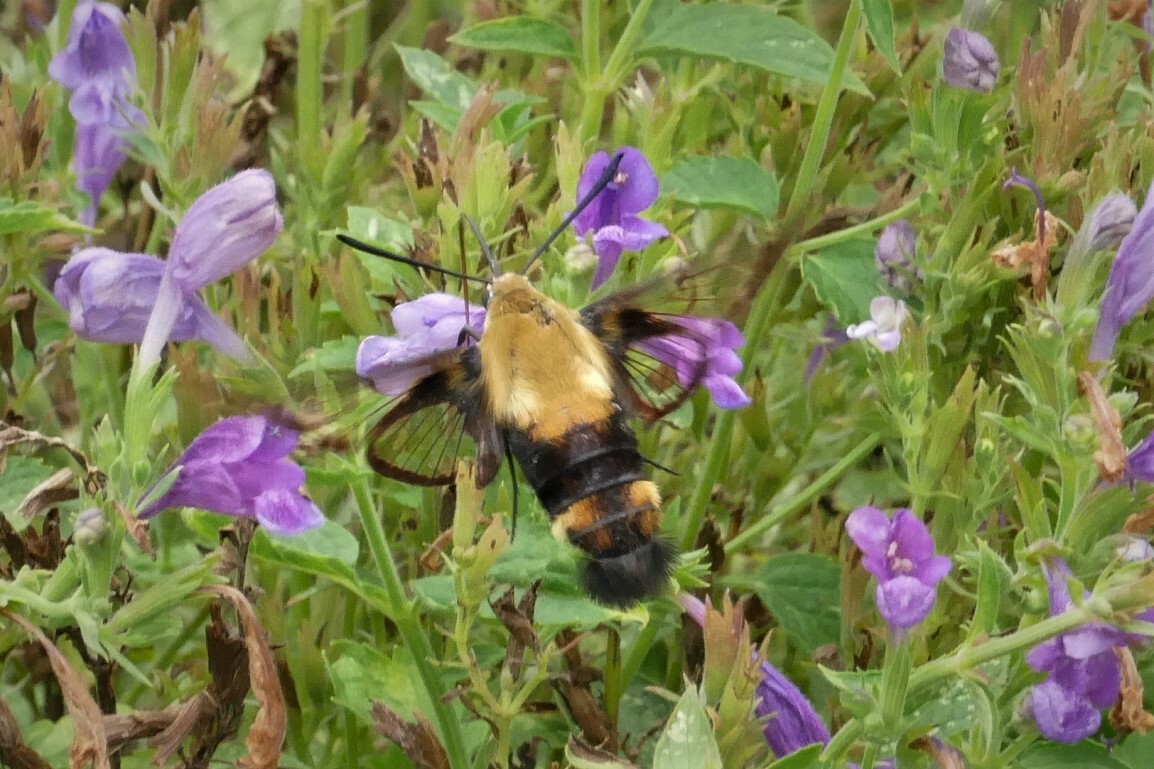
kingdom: Animalia
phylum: Arthropoda
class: Insecta
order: Lepidoptera
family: Sphingidae
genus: Hemaris
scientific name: Hemaris diffinis
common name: Bumblebee moth
